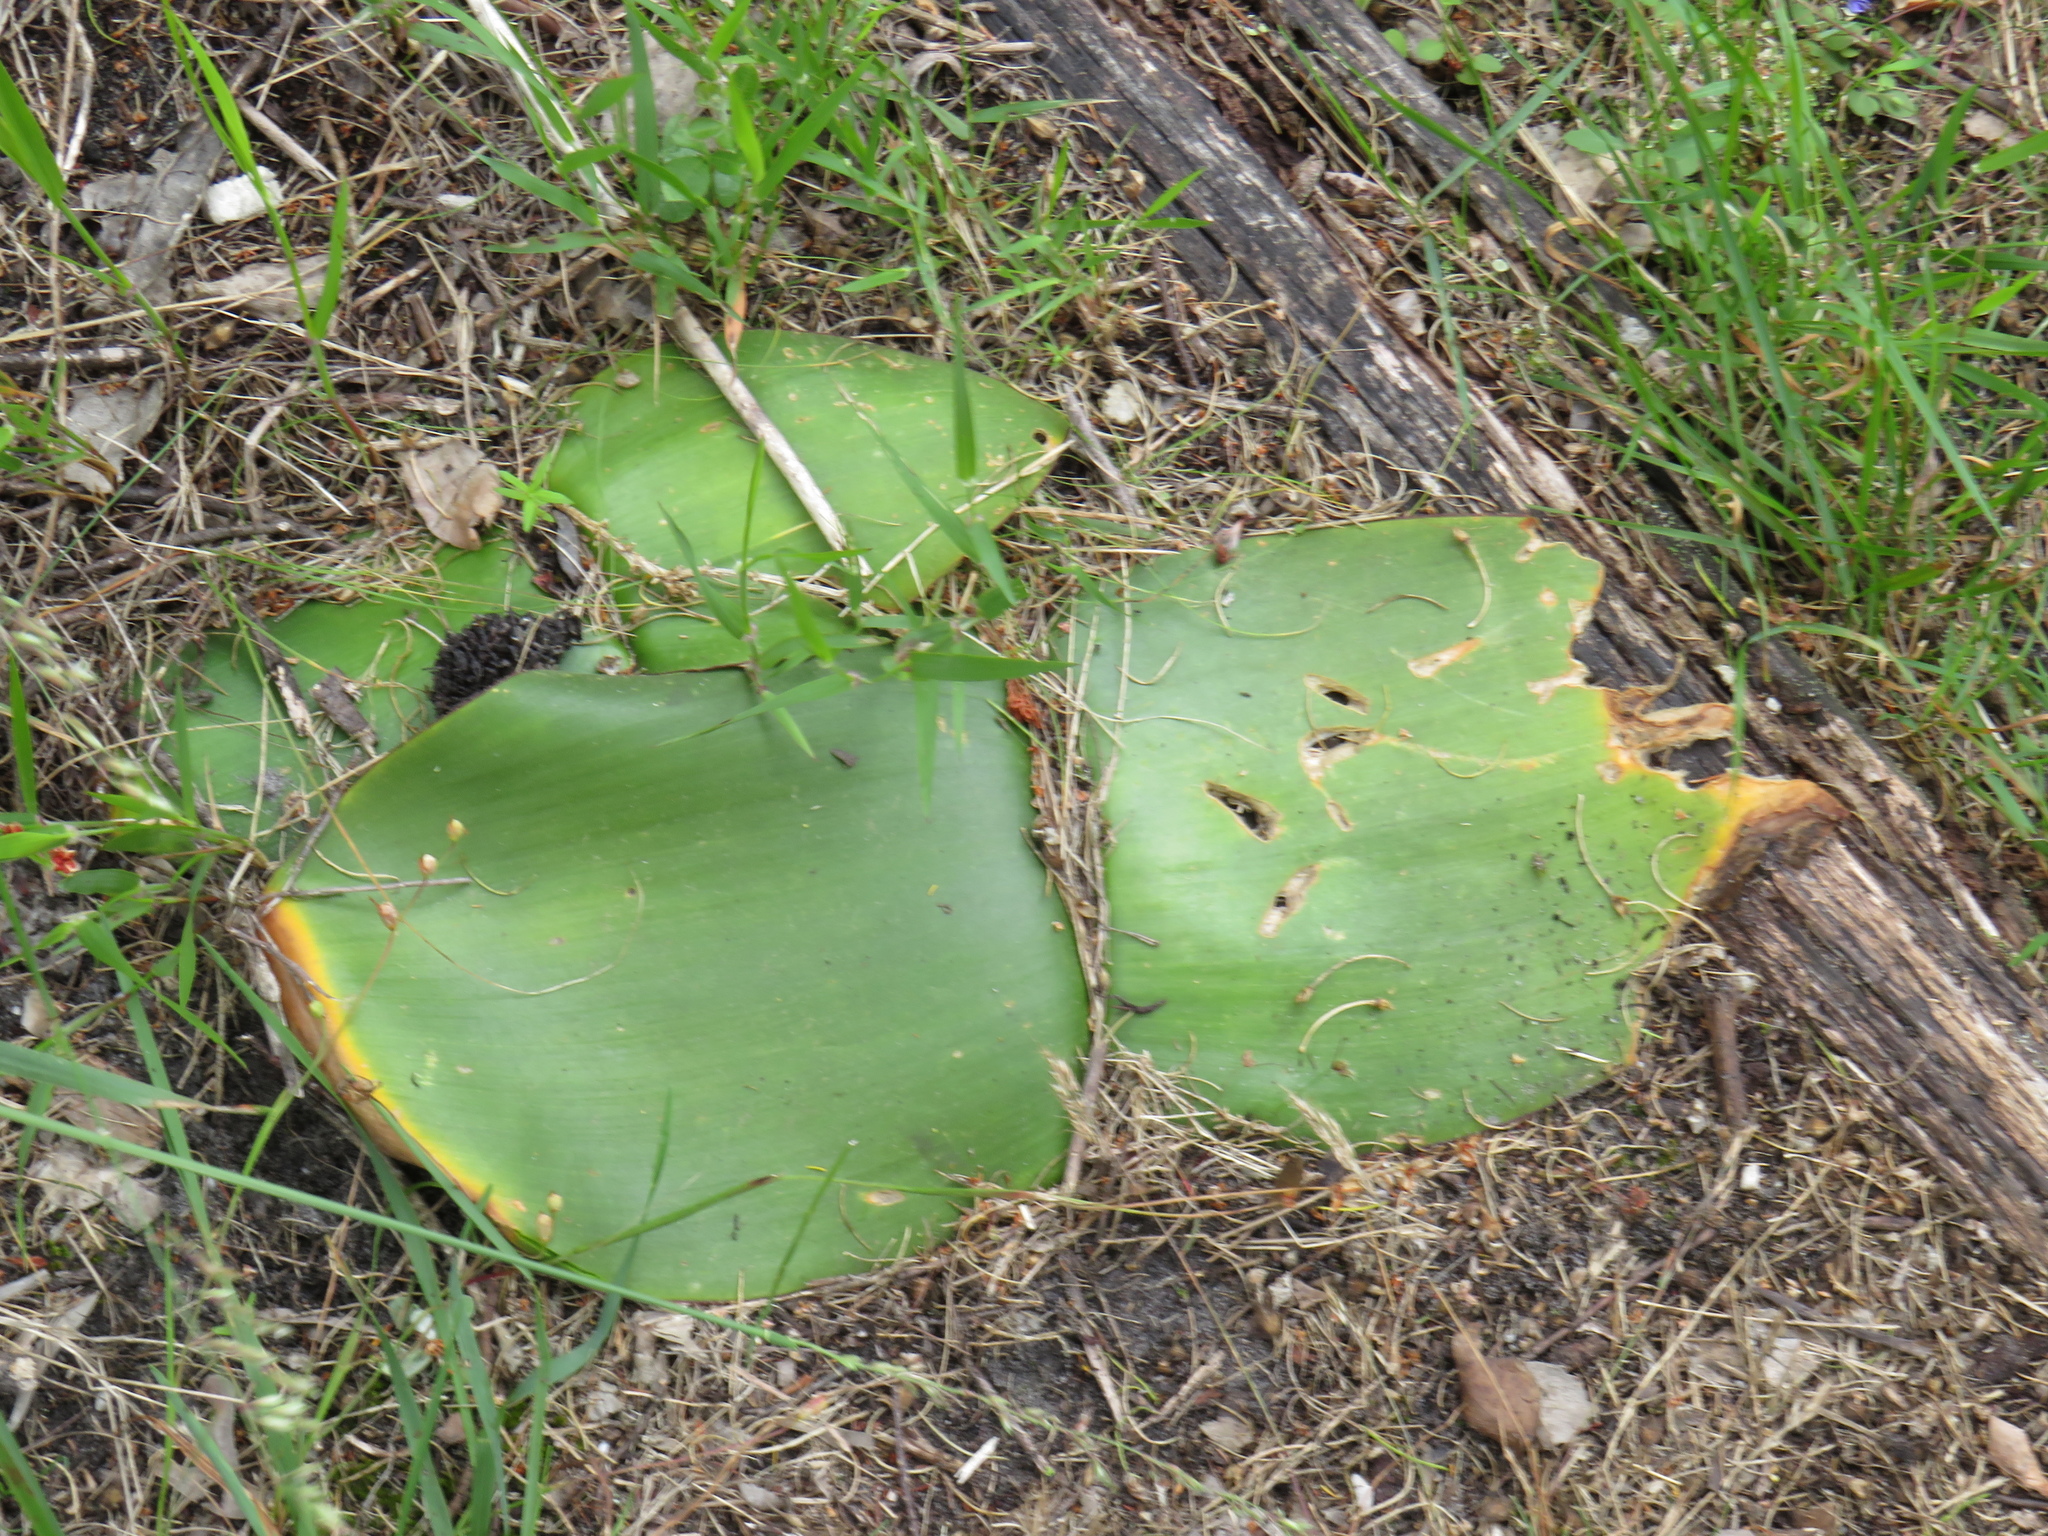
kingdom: Plantae
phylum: Tracheophyta
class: Liliopsida
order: Asparagales
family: Amaryllidaceae
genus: Haemanthus
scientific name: Haemanthus sanguineus
